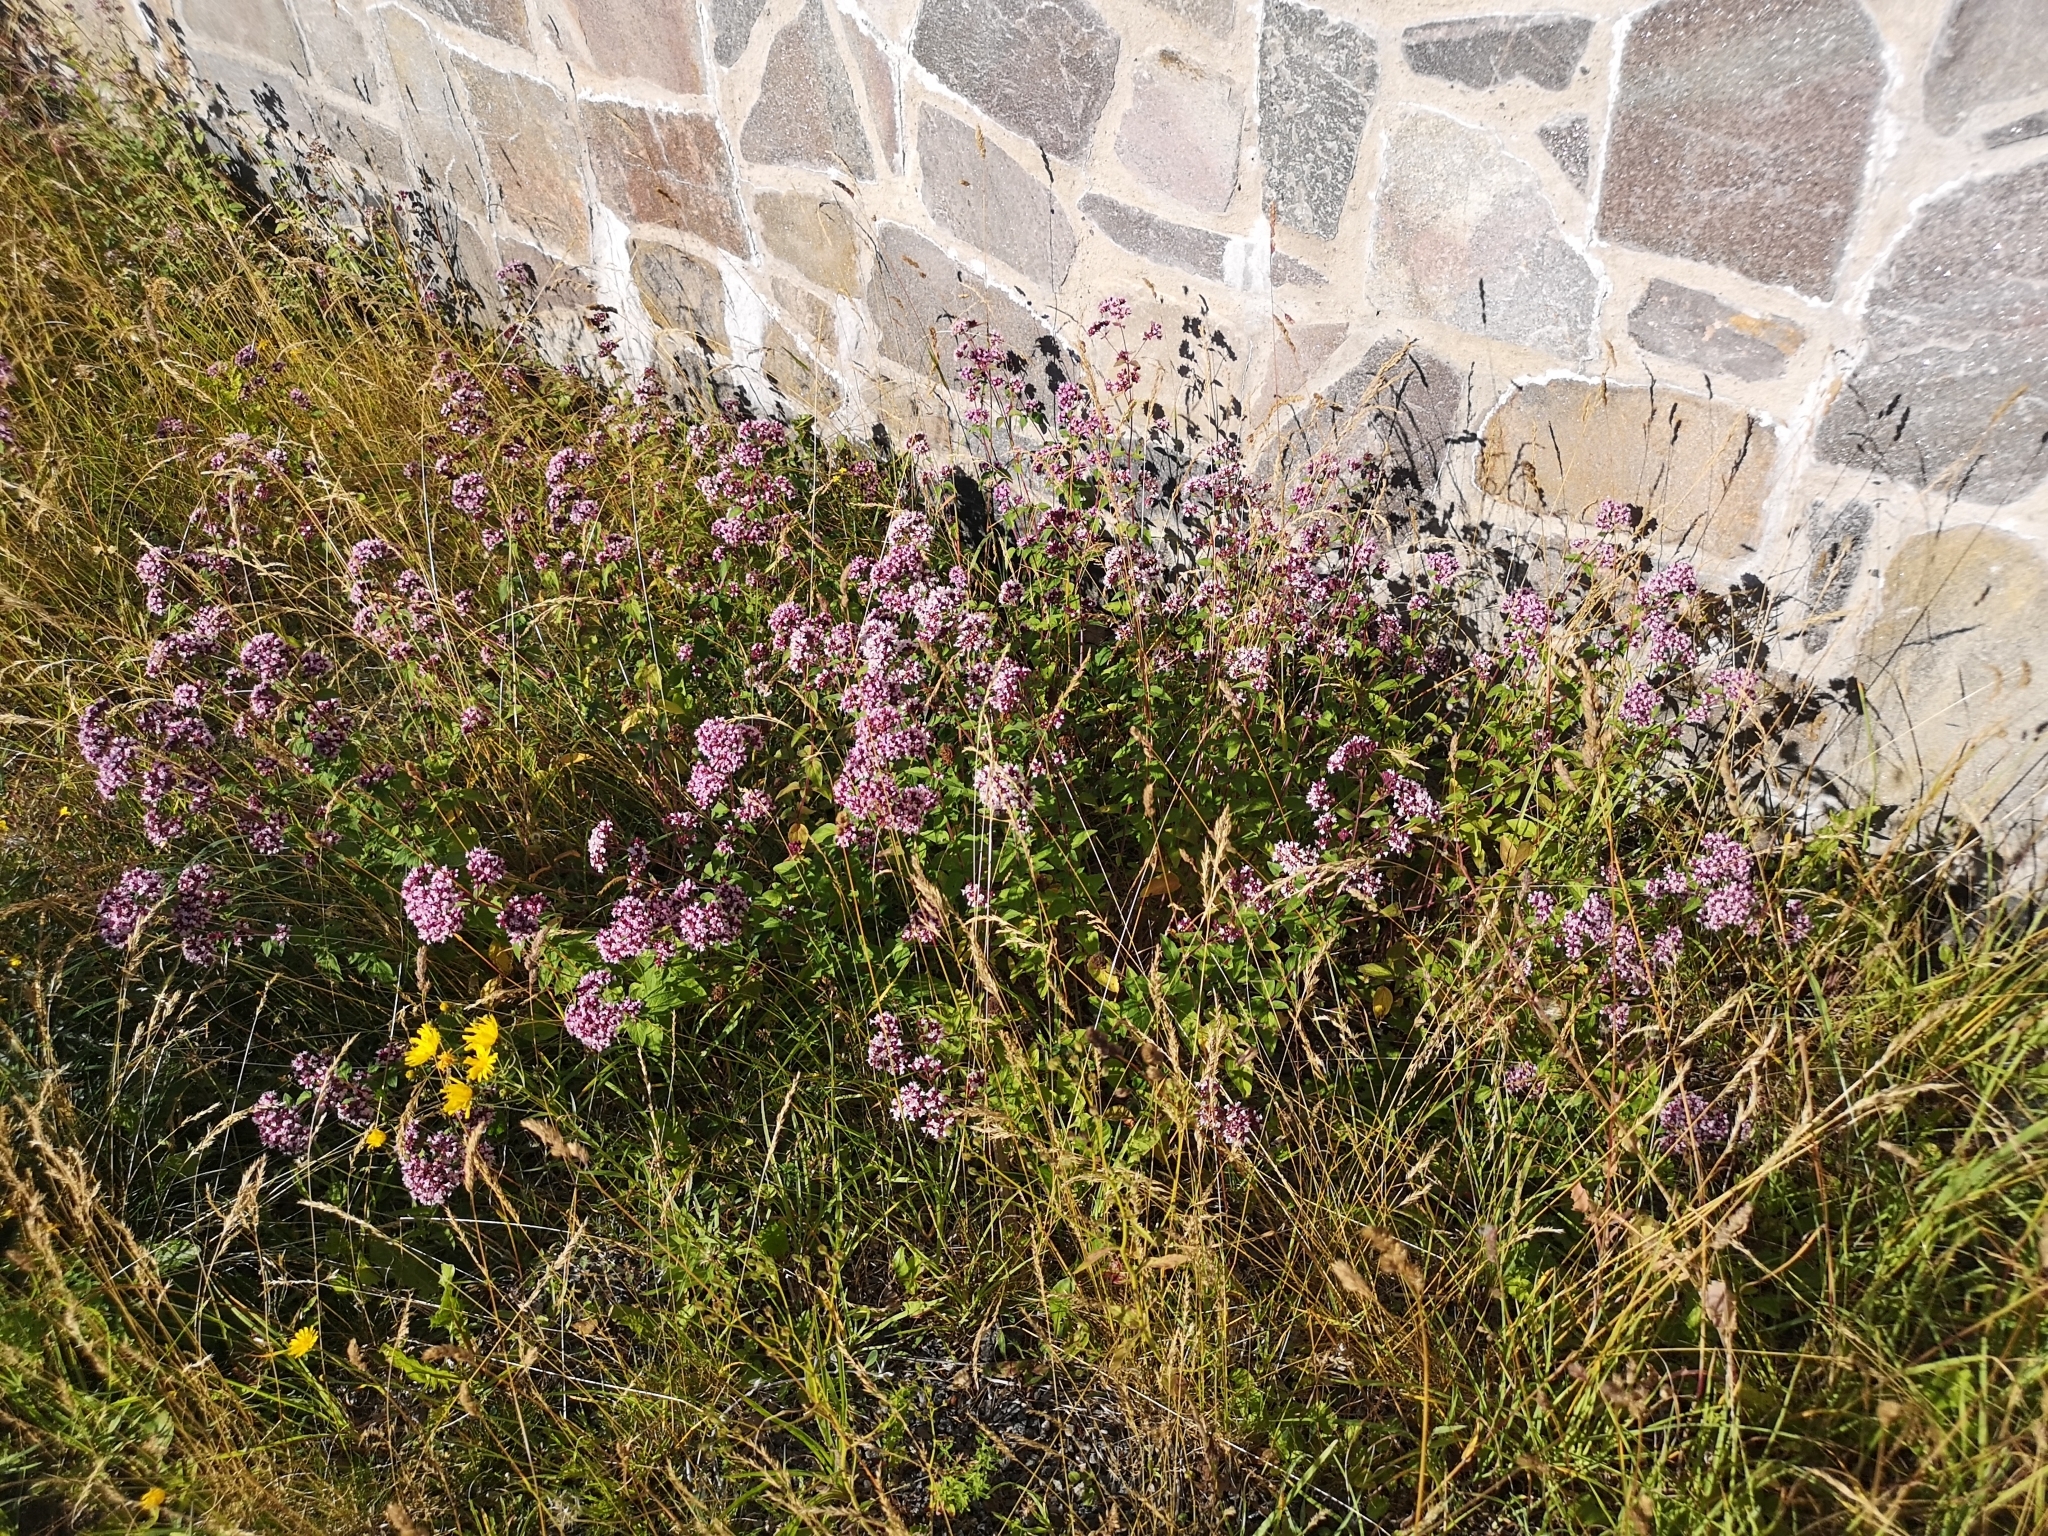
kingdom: Plantae
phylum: Tracheophyta
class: Magnoliopsida
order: Lamiales
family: Lamiaceae
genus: Origanum
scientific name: Origanum vulgare
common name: Wild marjoram
